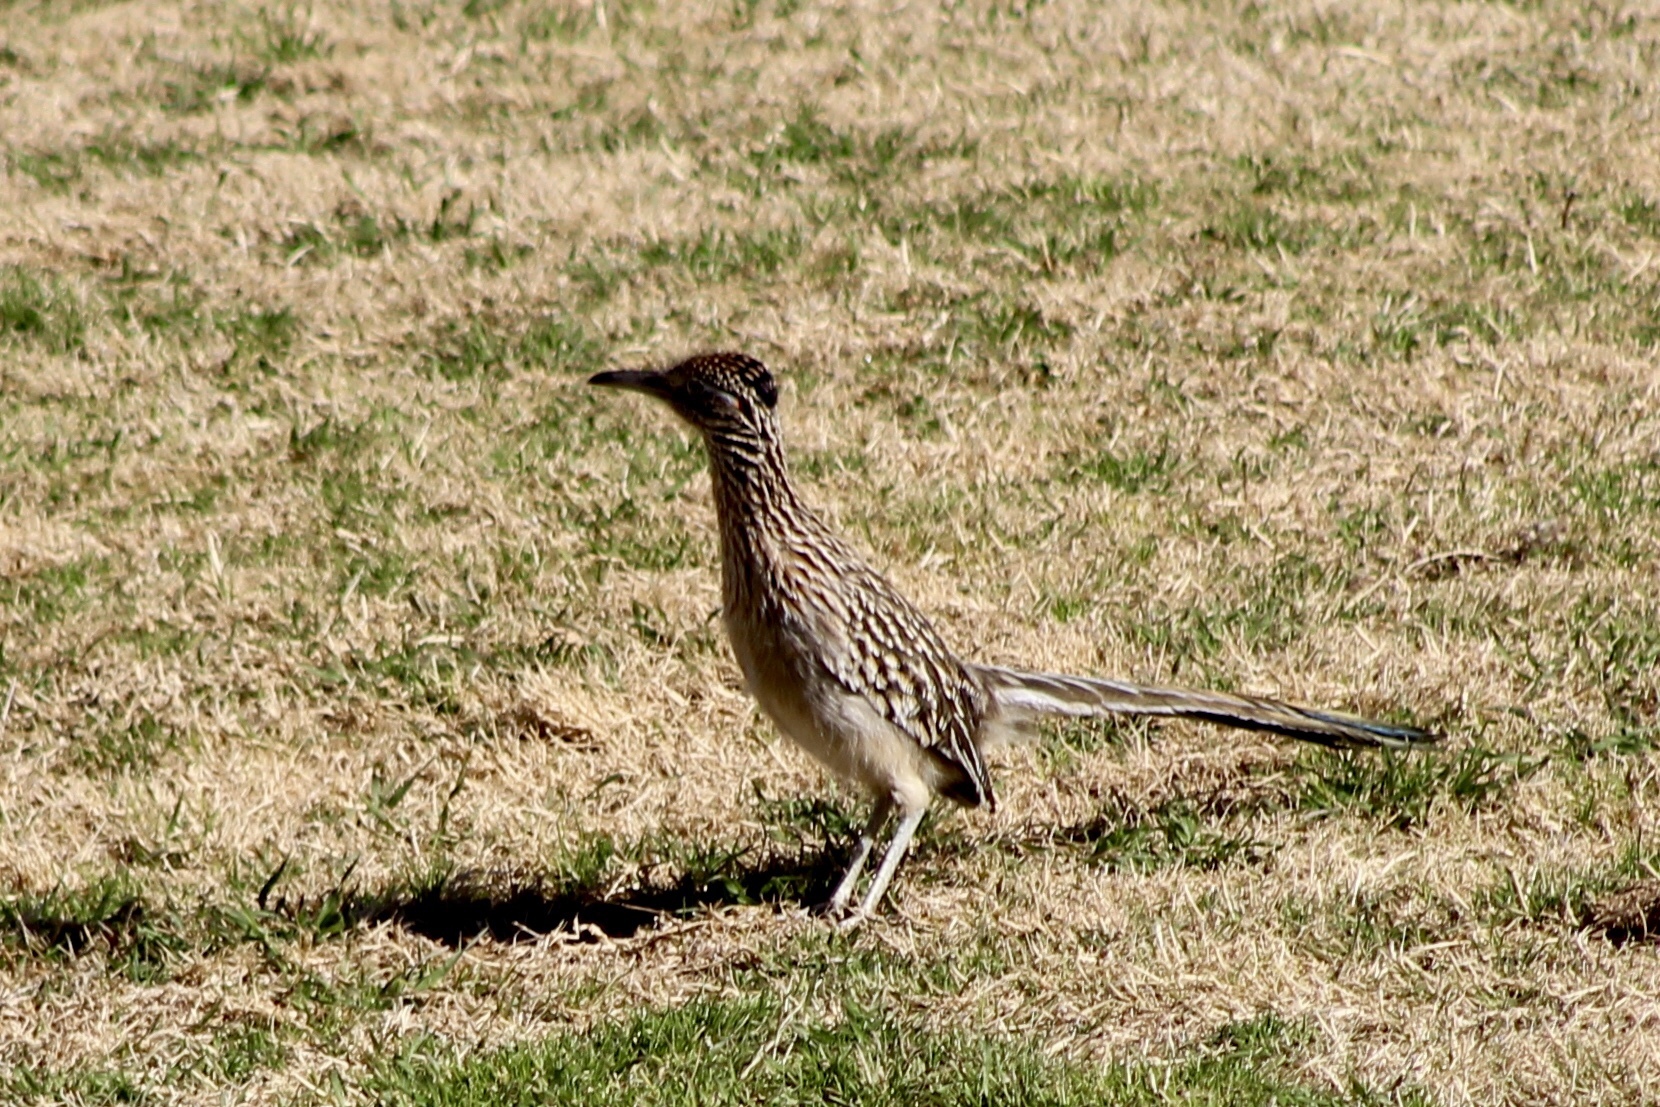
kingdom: Animalia
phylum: Chordata
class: Aves
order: Cuculiformes
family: Cuculidae
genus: Geococcyx
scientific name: Geococcyx californianus
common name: Greater roadrunner
